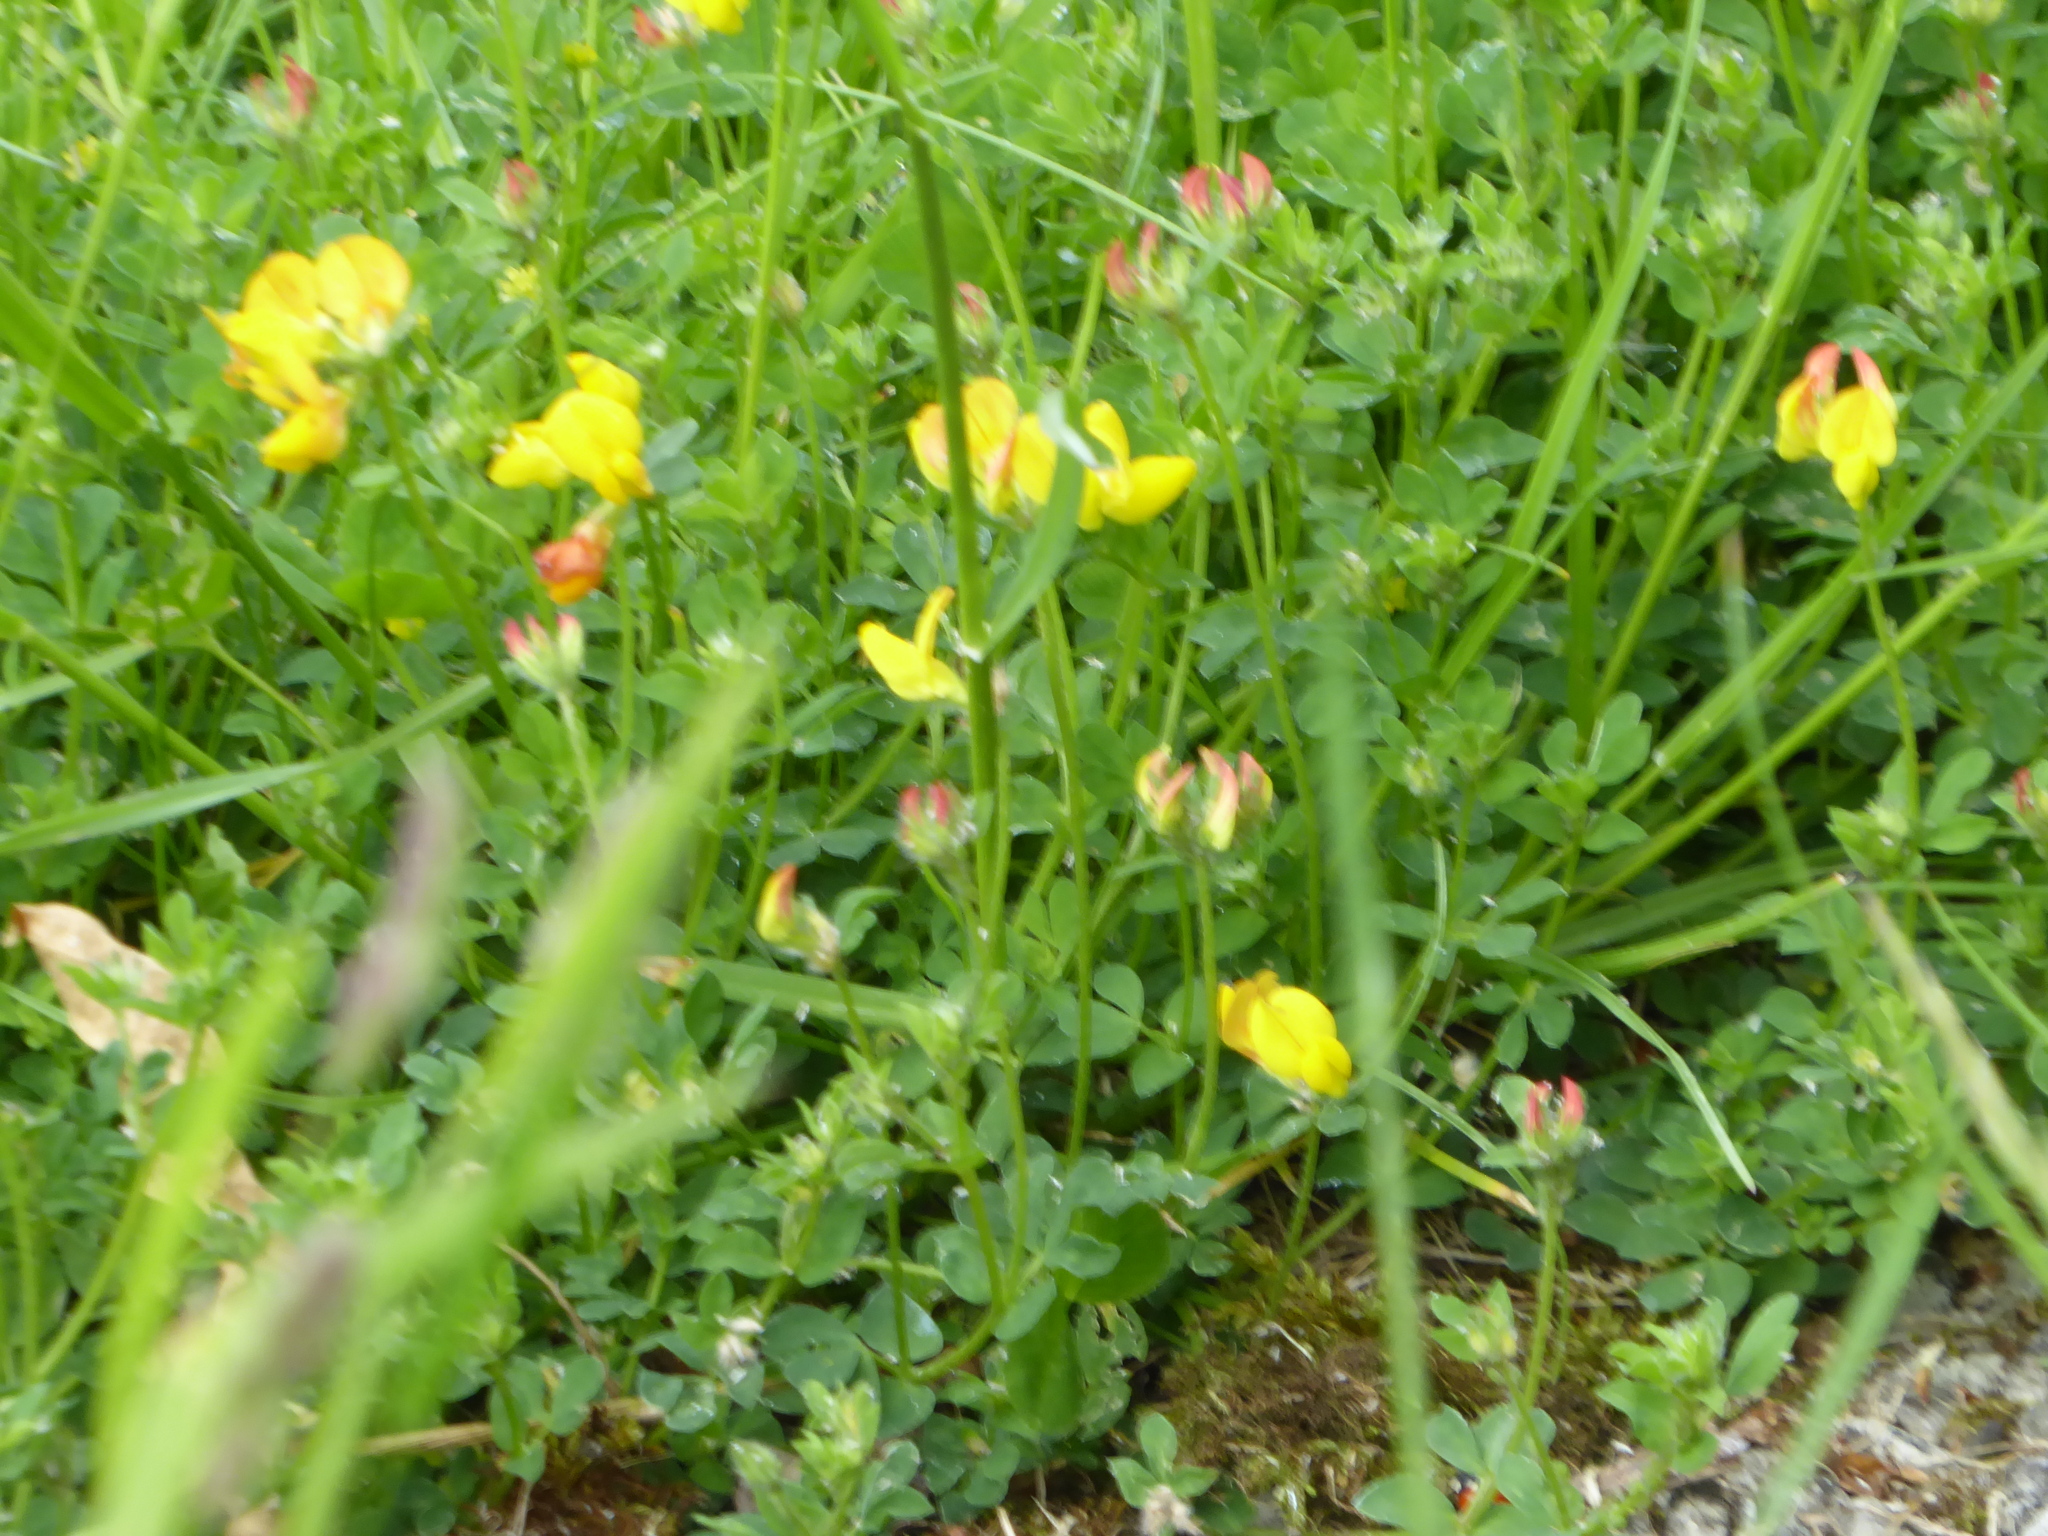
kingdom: Plantae
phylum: Tracheophyta
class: Magnoliopsida
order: Fabales
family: Fabaceae
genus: Lotus
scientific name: Lotus corniculatus
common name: Common bird's-foot-trefoil
